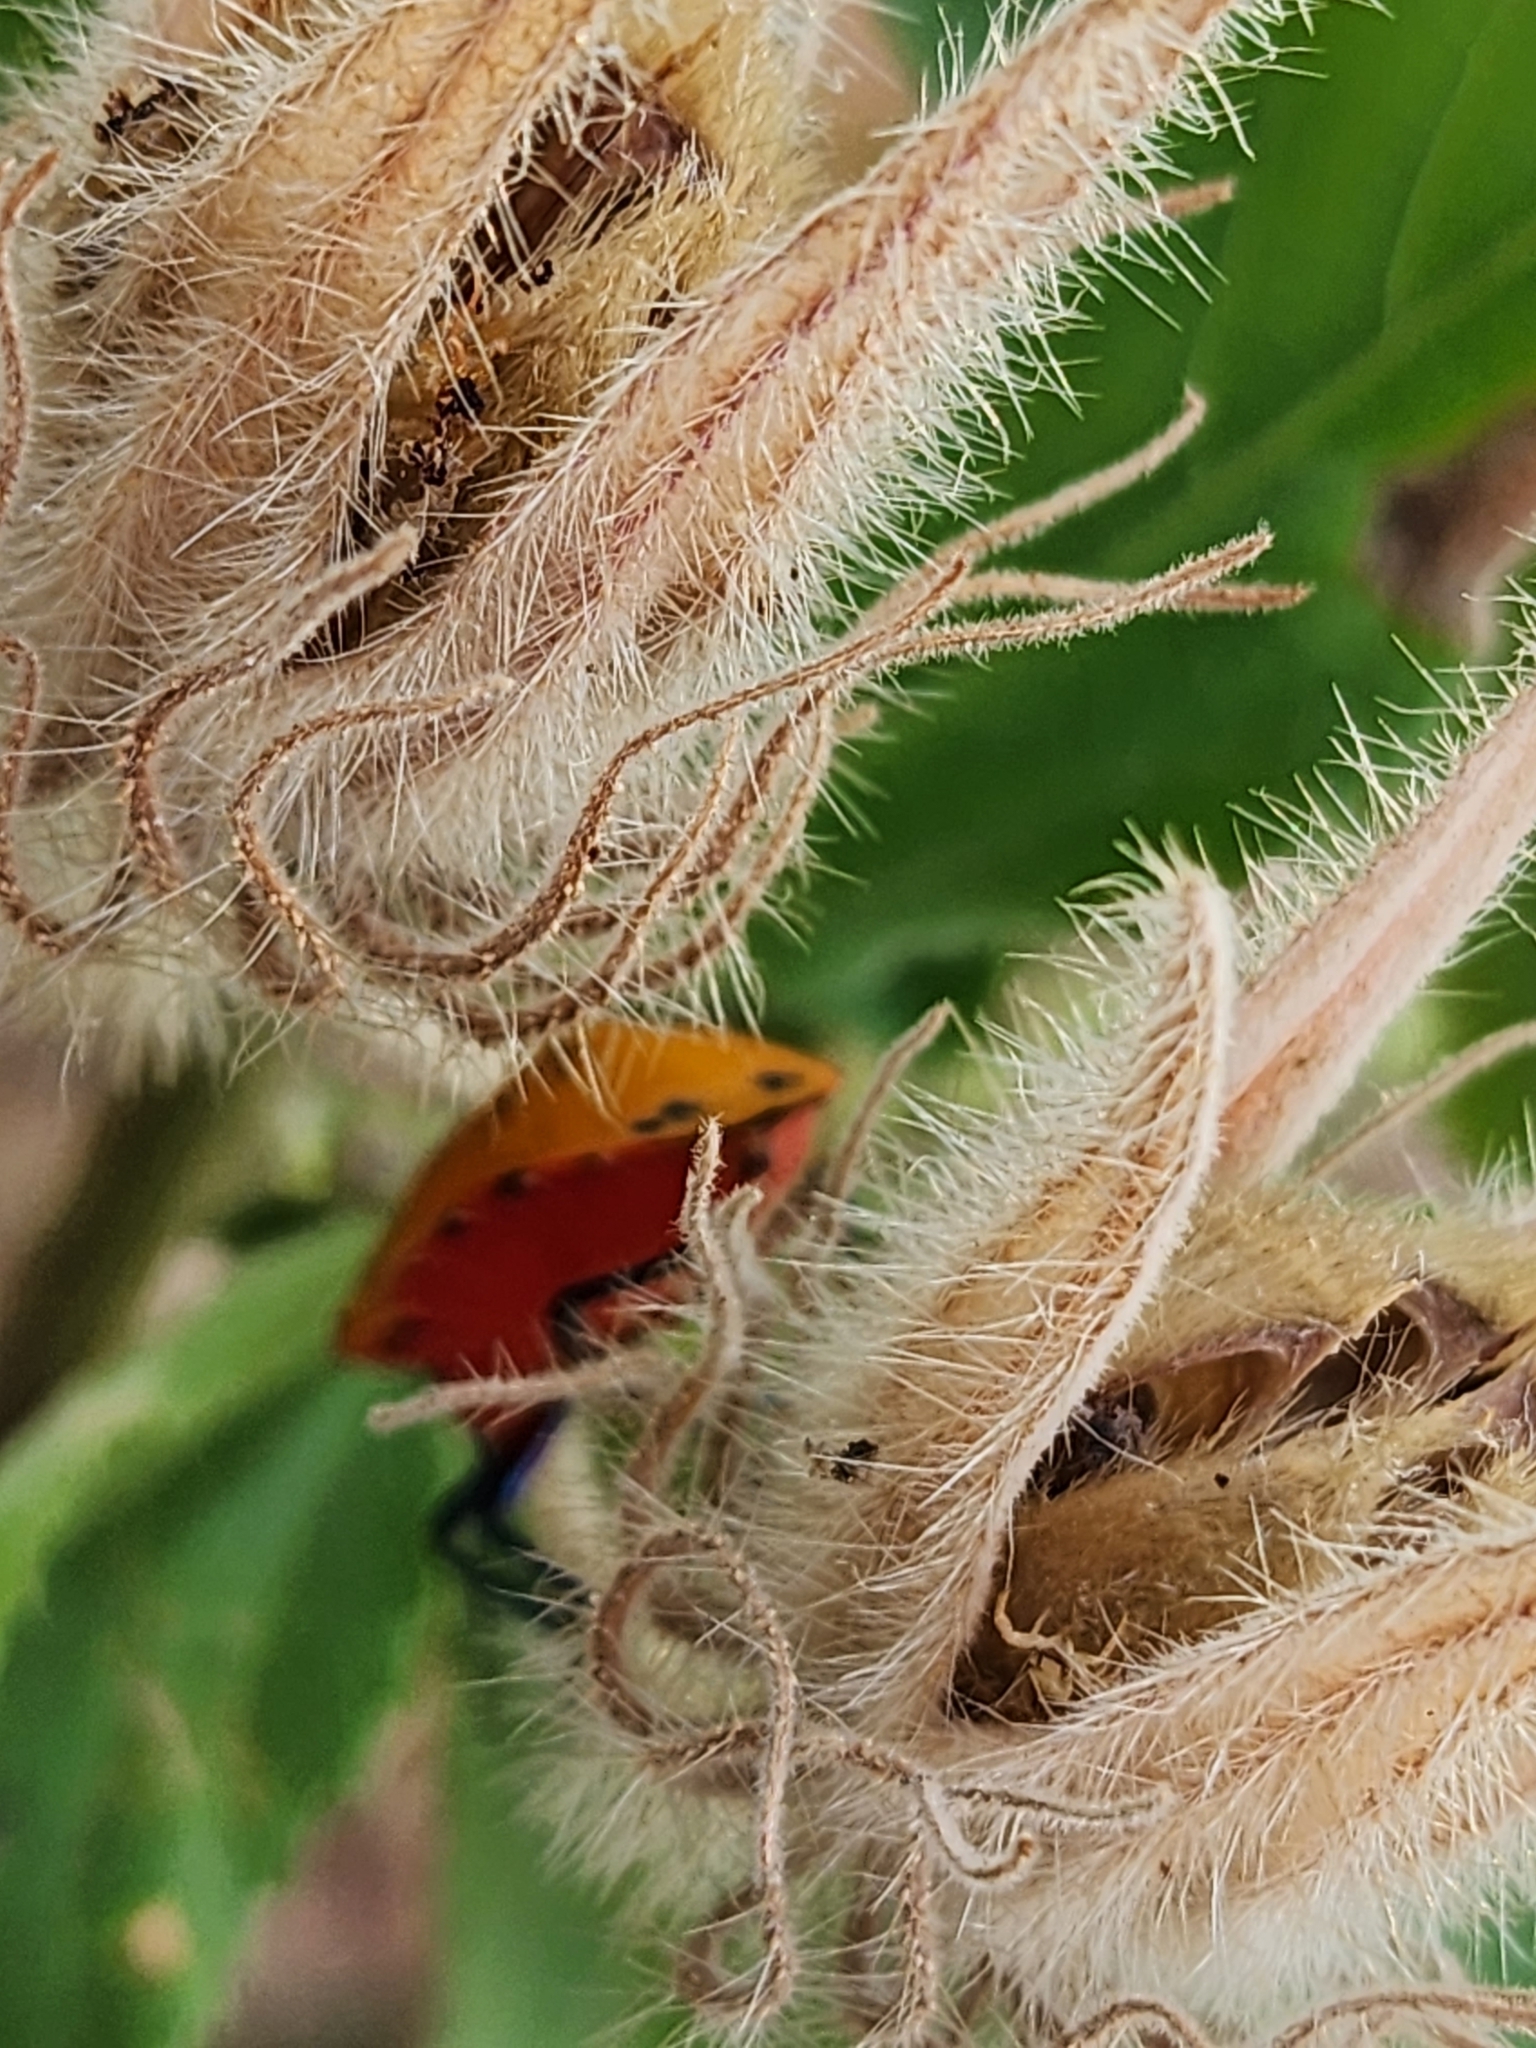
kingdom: Animalia
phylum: Arthropoda
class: Insecta
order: Hemiptera
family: Scutelleridae
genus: Tectocoris
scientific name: Tectocoris diophthalmus
